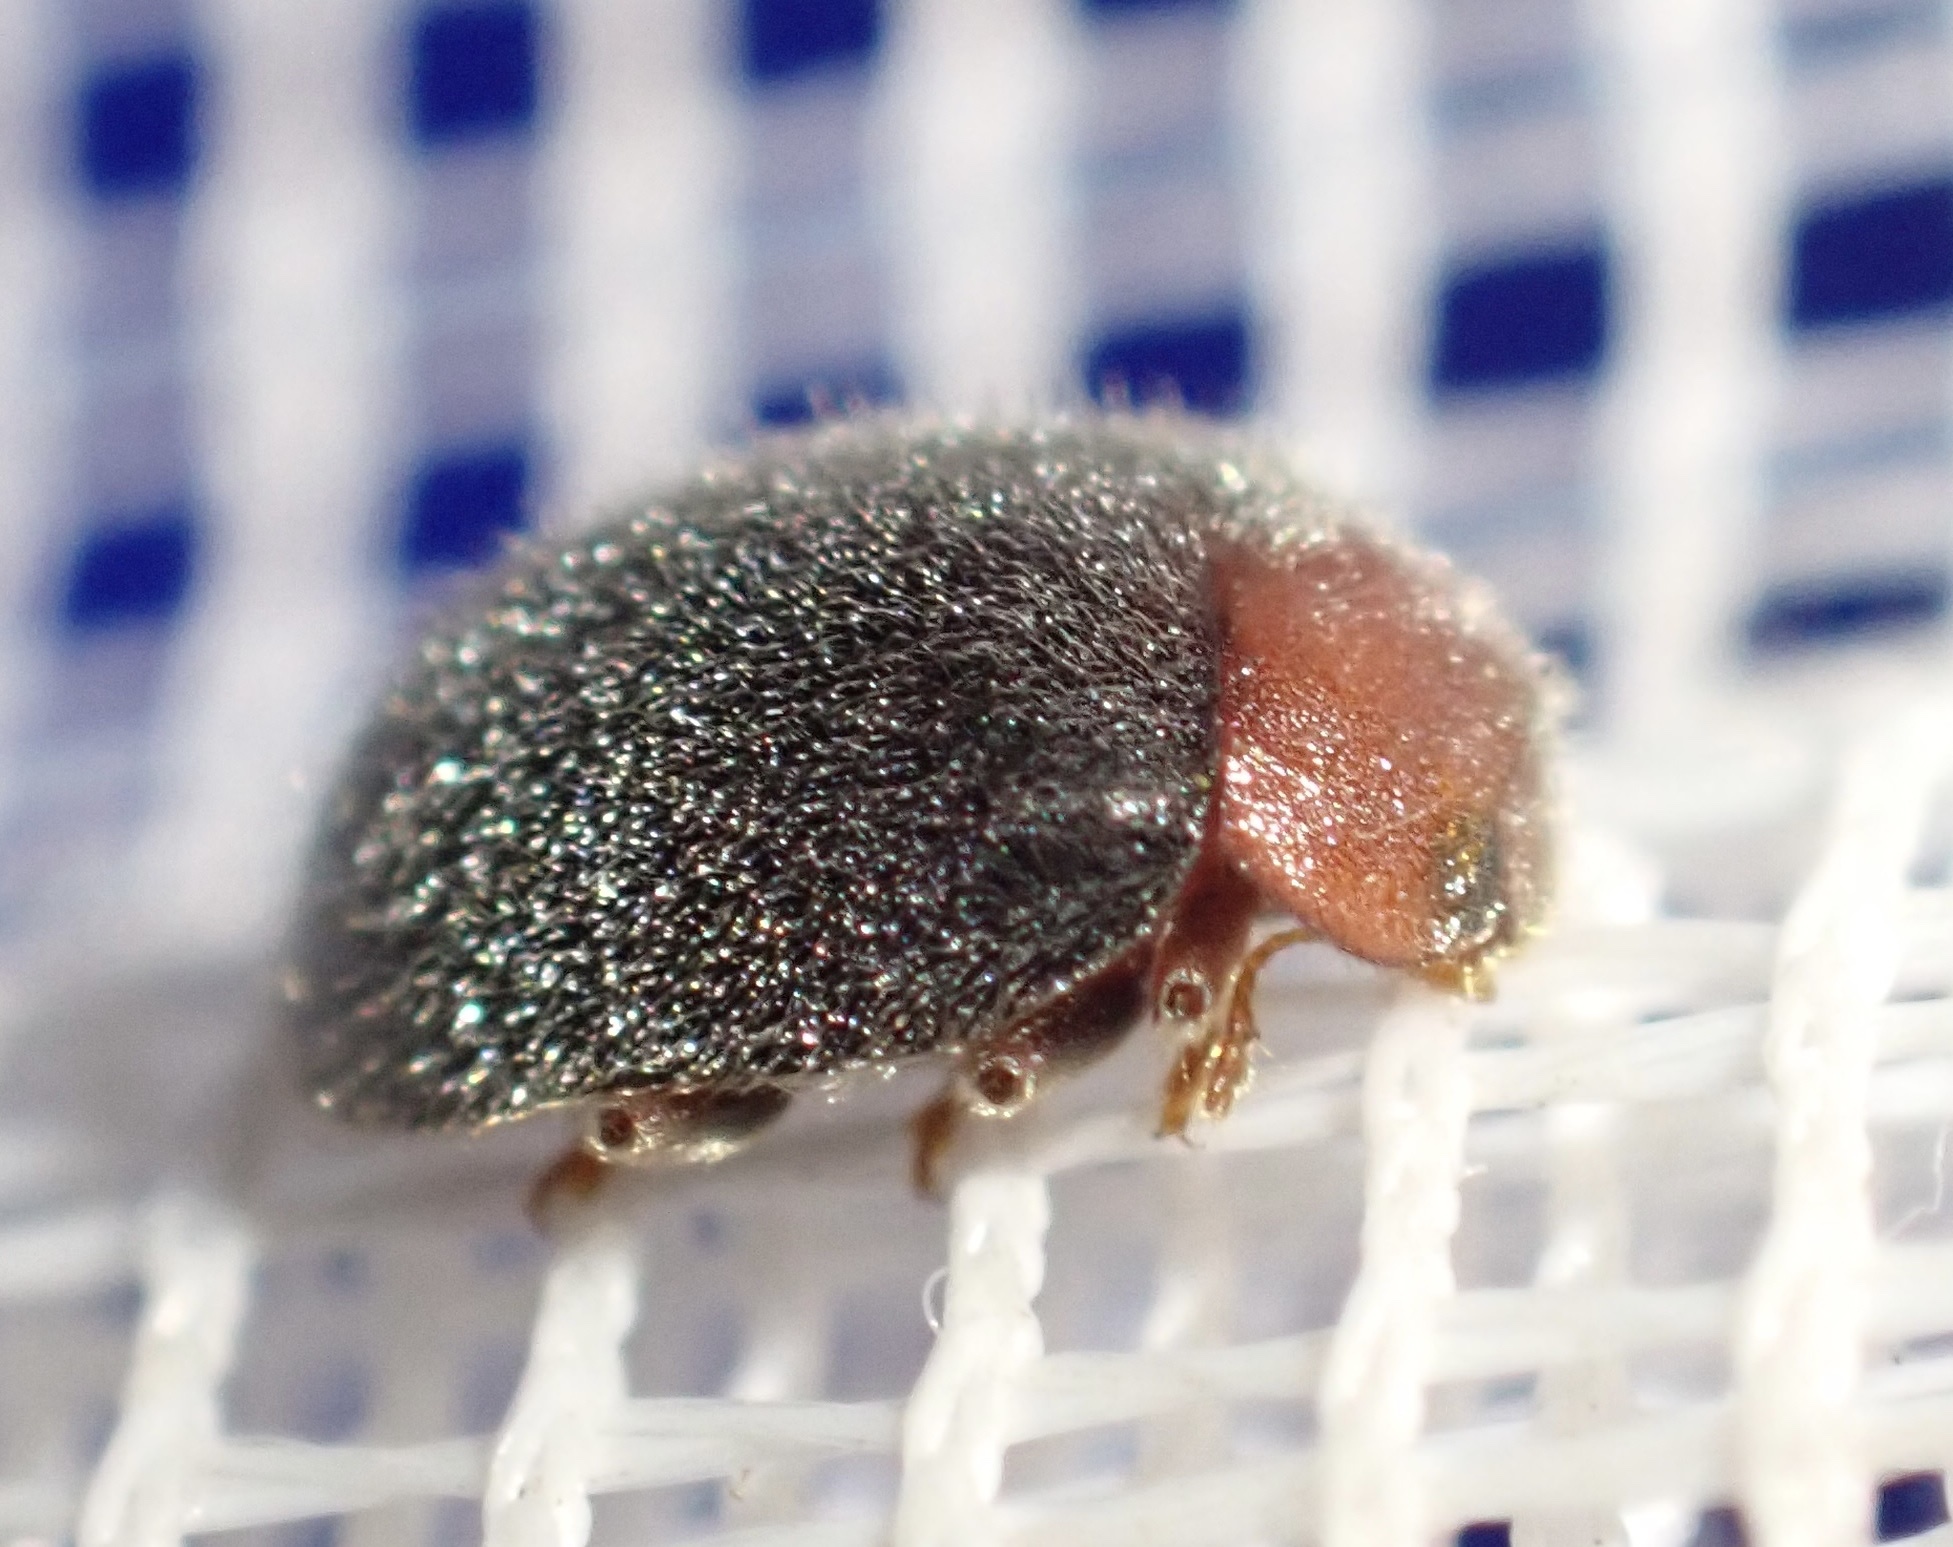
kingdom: Animalia
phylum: Arthropoda
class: Insecta
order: Coleoptera
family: Coccinellidae
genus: Cryptolaemus
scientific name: Cryptolaemus montrouzieri
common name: Mealybug destroyer
